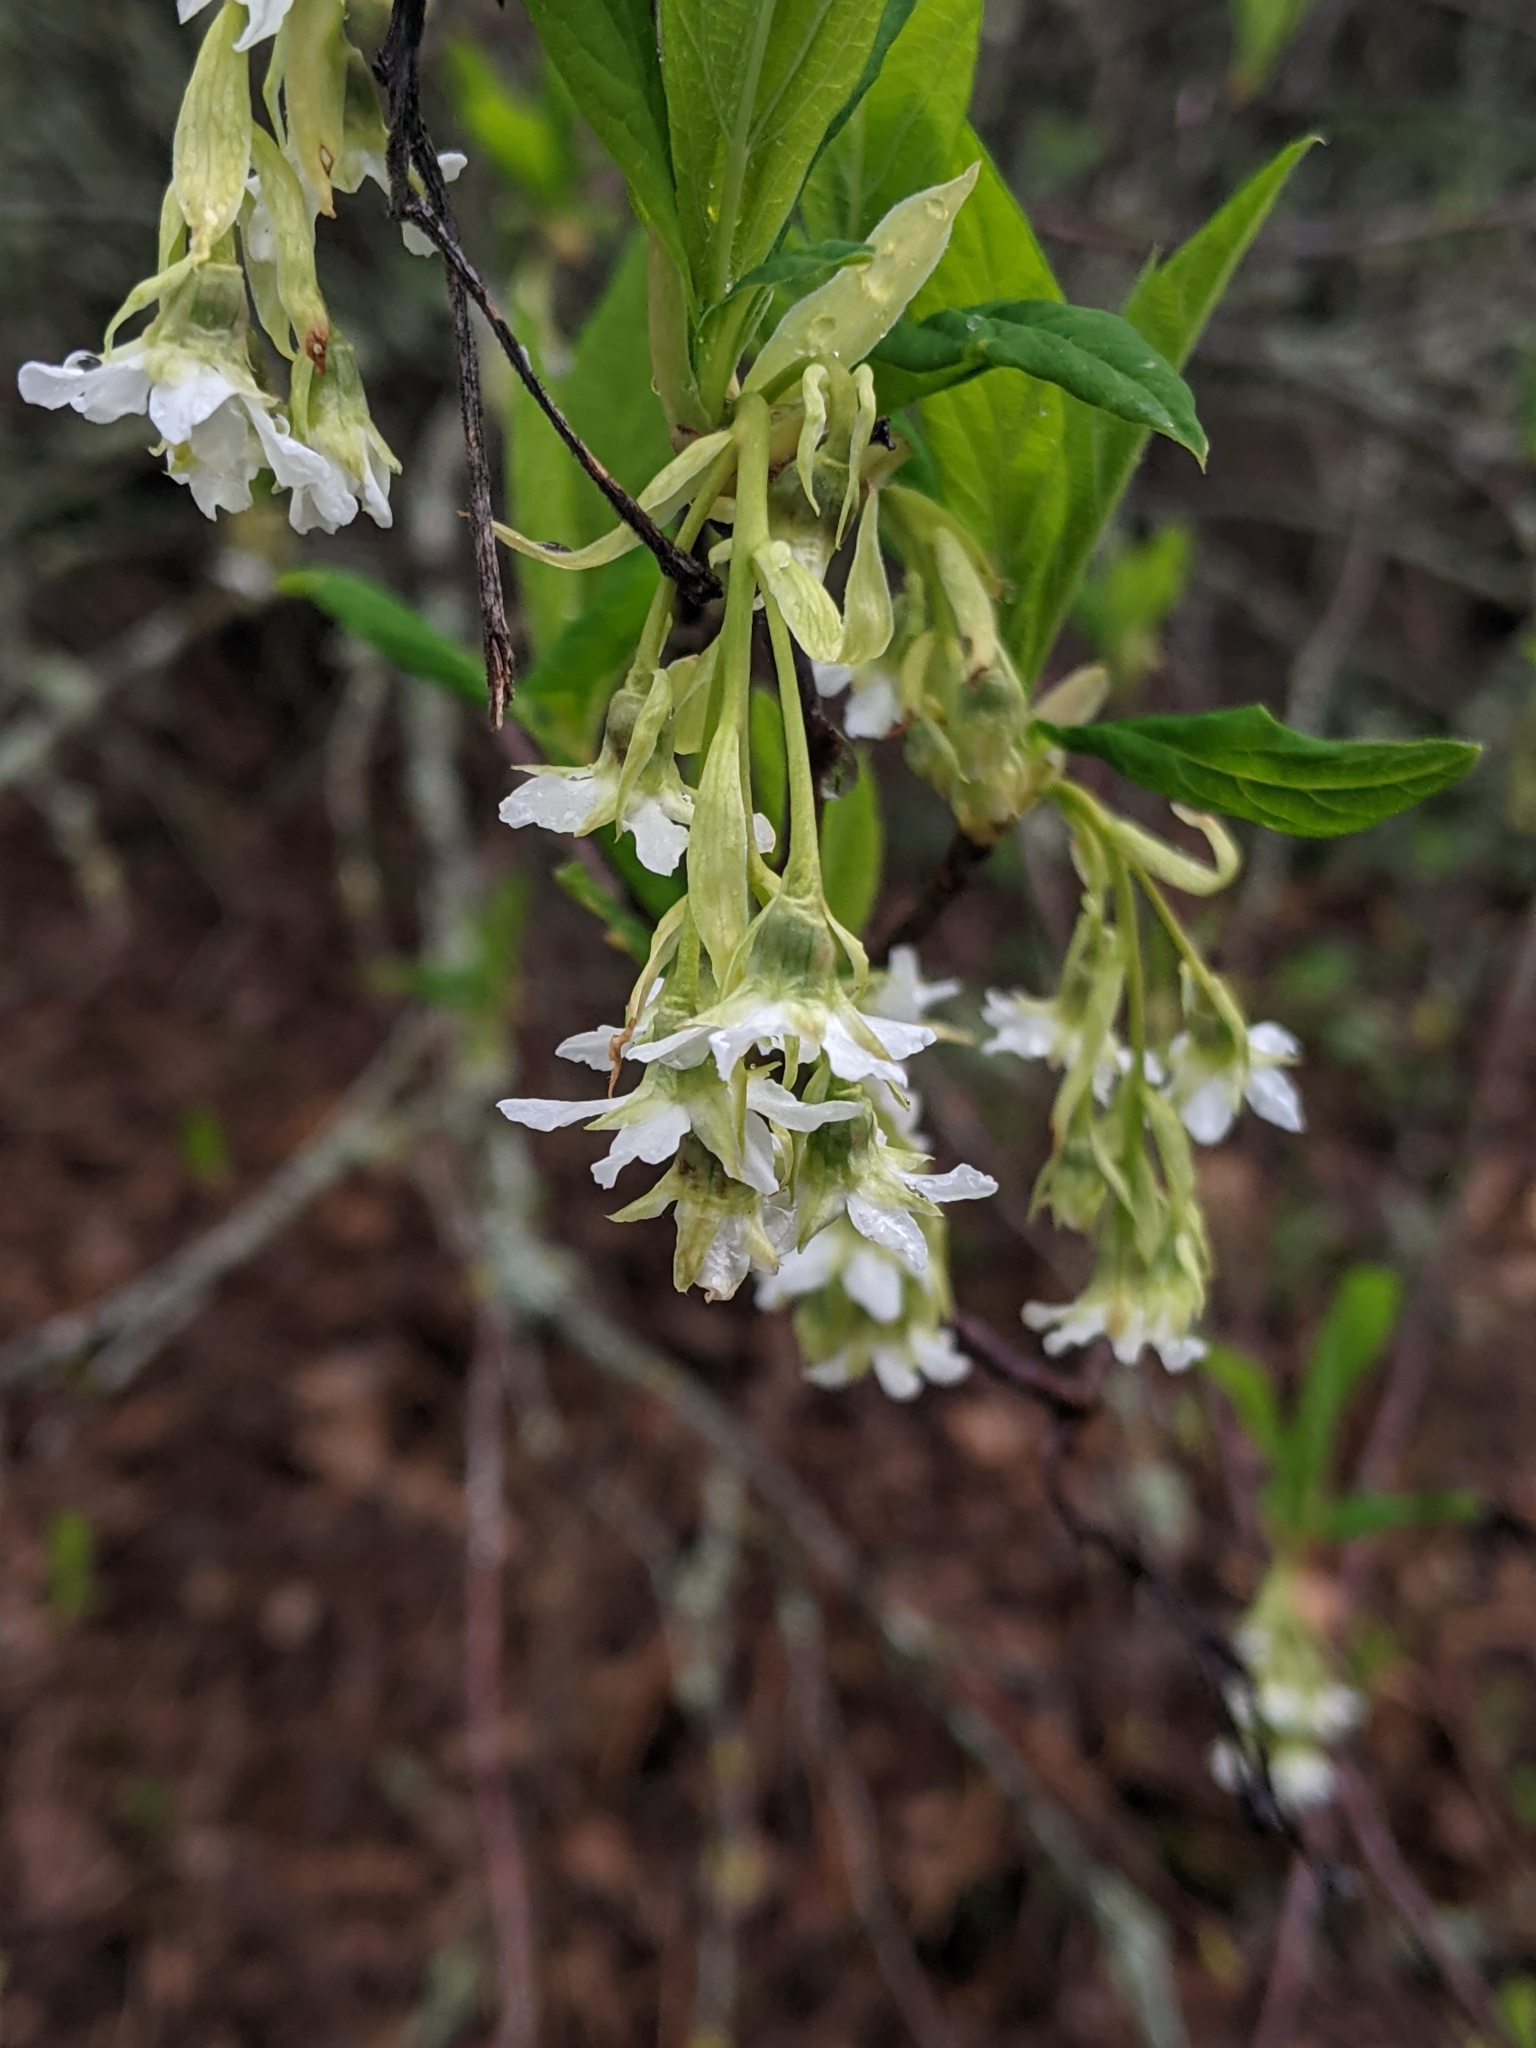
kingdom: Plantae
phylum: Tracheophyta
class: Magnoliopsida
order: Rosales
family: Rosaceae
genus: Oemleria
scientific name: Oemleria cerasiformis
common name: Osoberry
